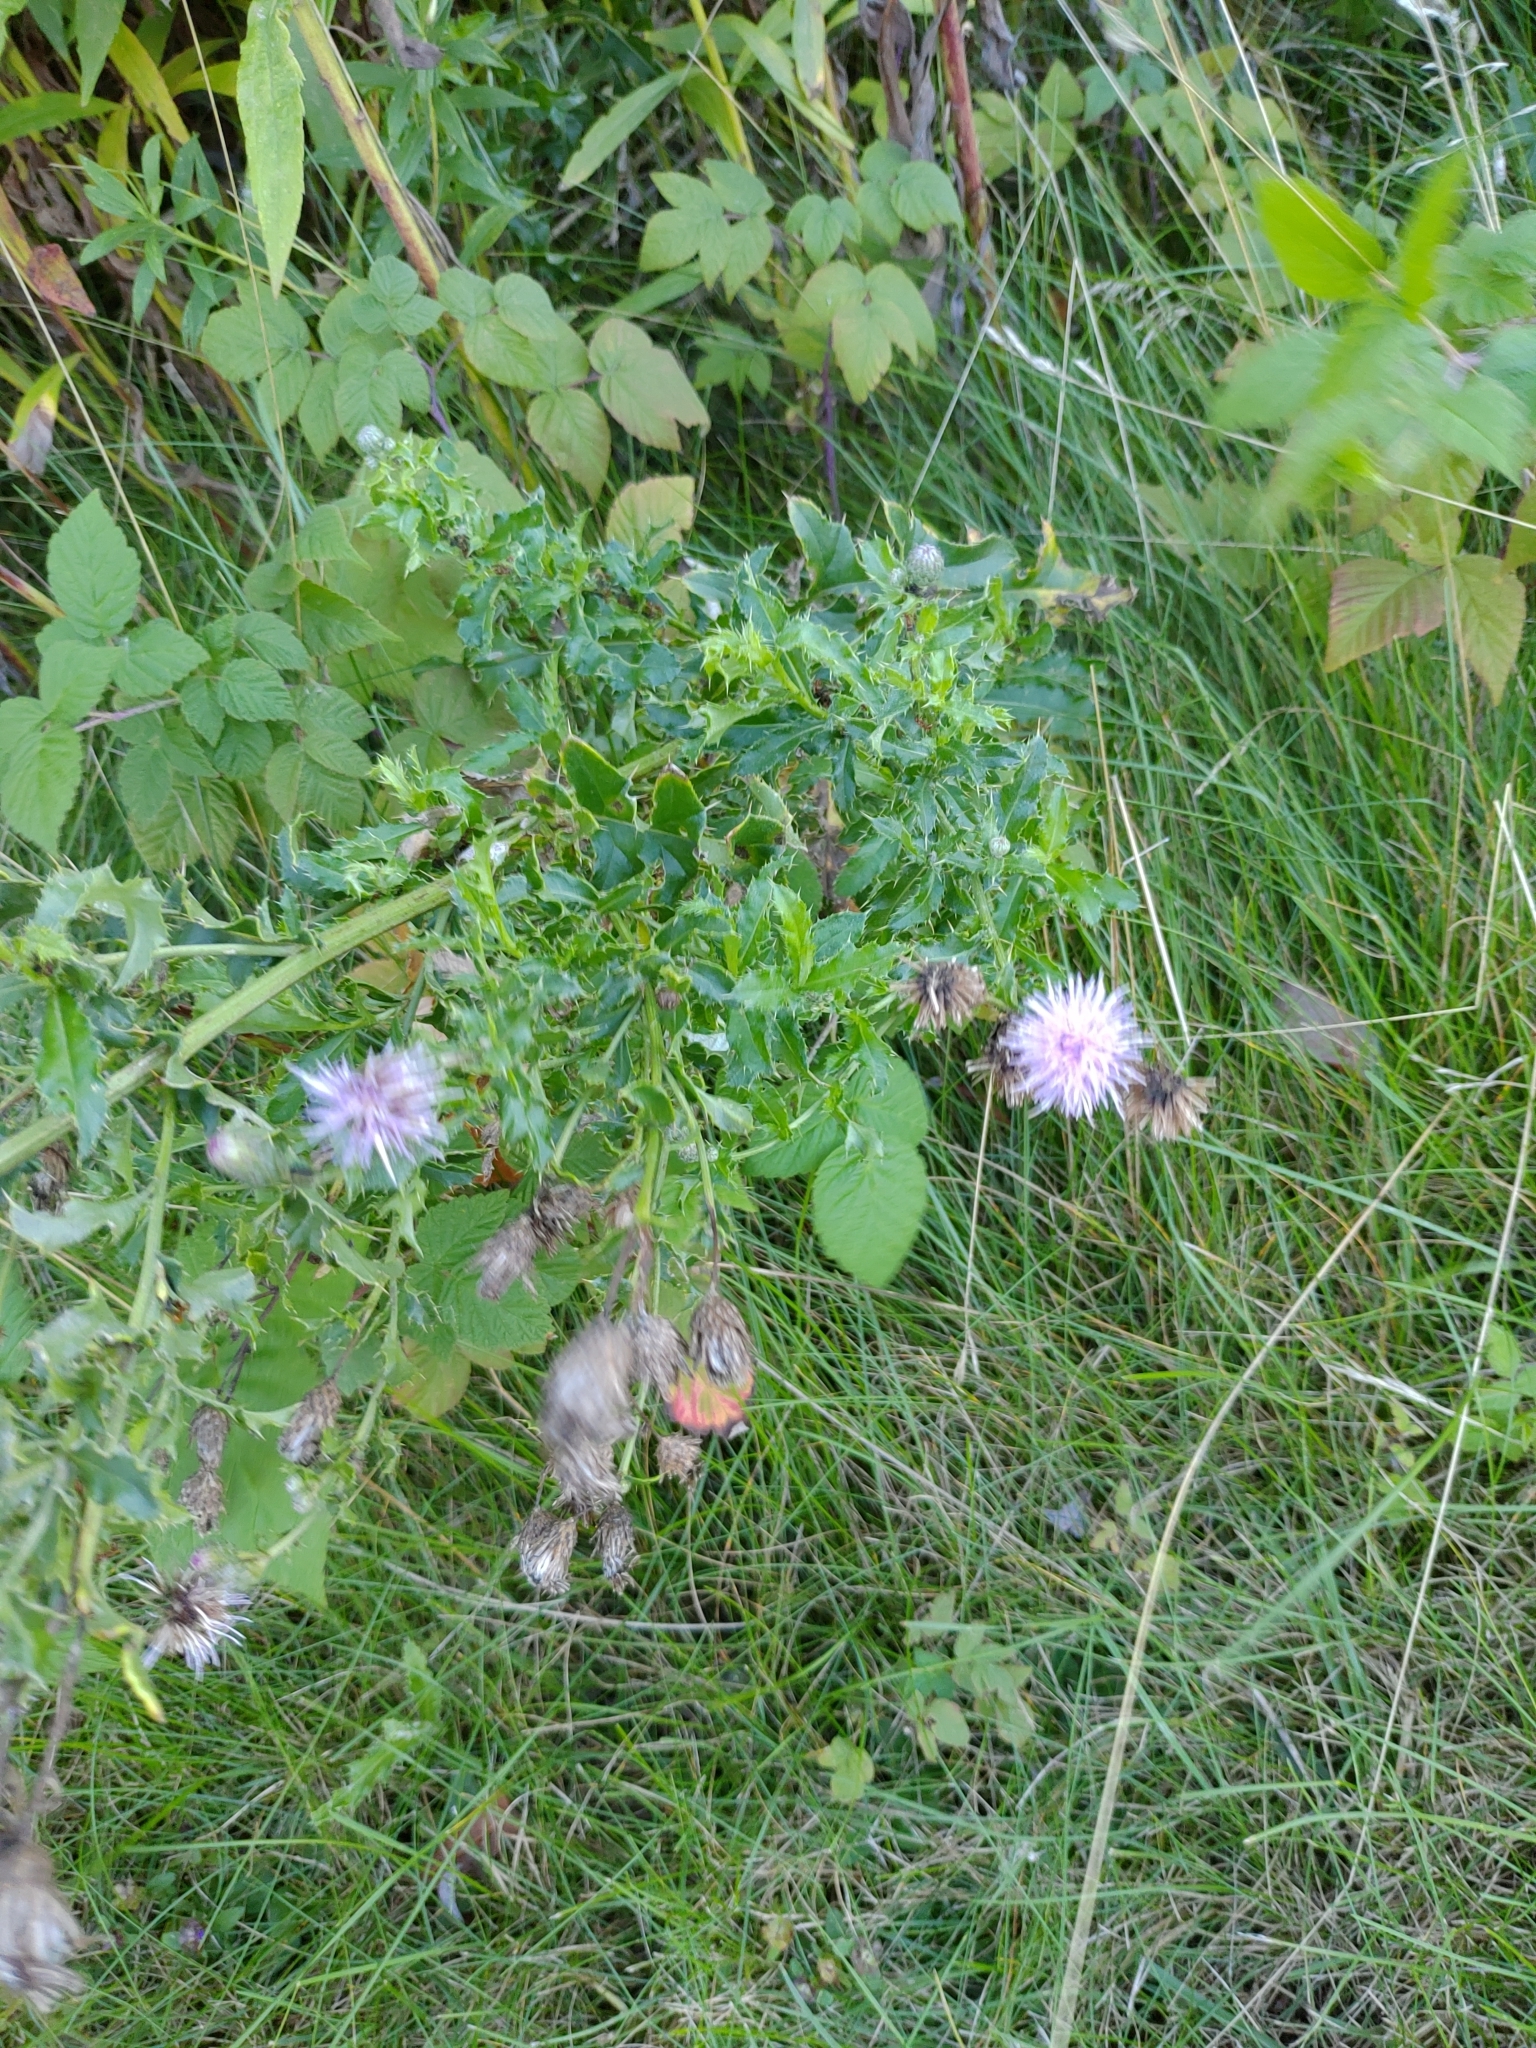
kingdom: Plantae
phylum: Tracheophyta
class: Magnoliopsida
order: Asterales
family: Asteraceae
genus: Cirsium
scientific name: Cirsium arvense
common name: Creeping thistle
